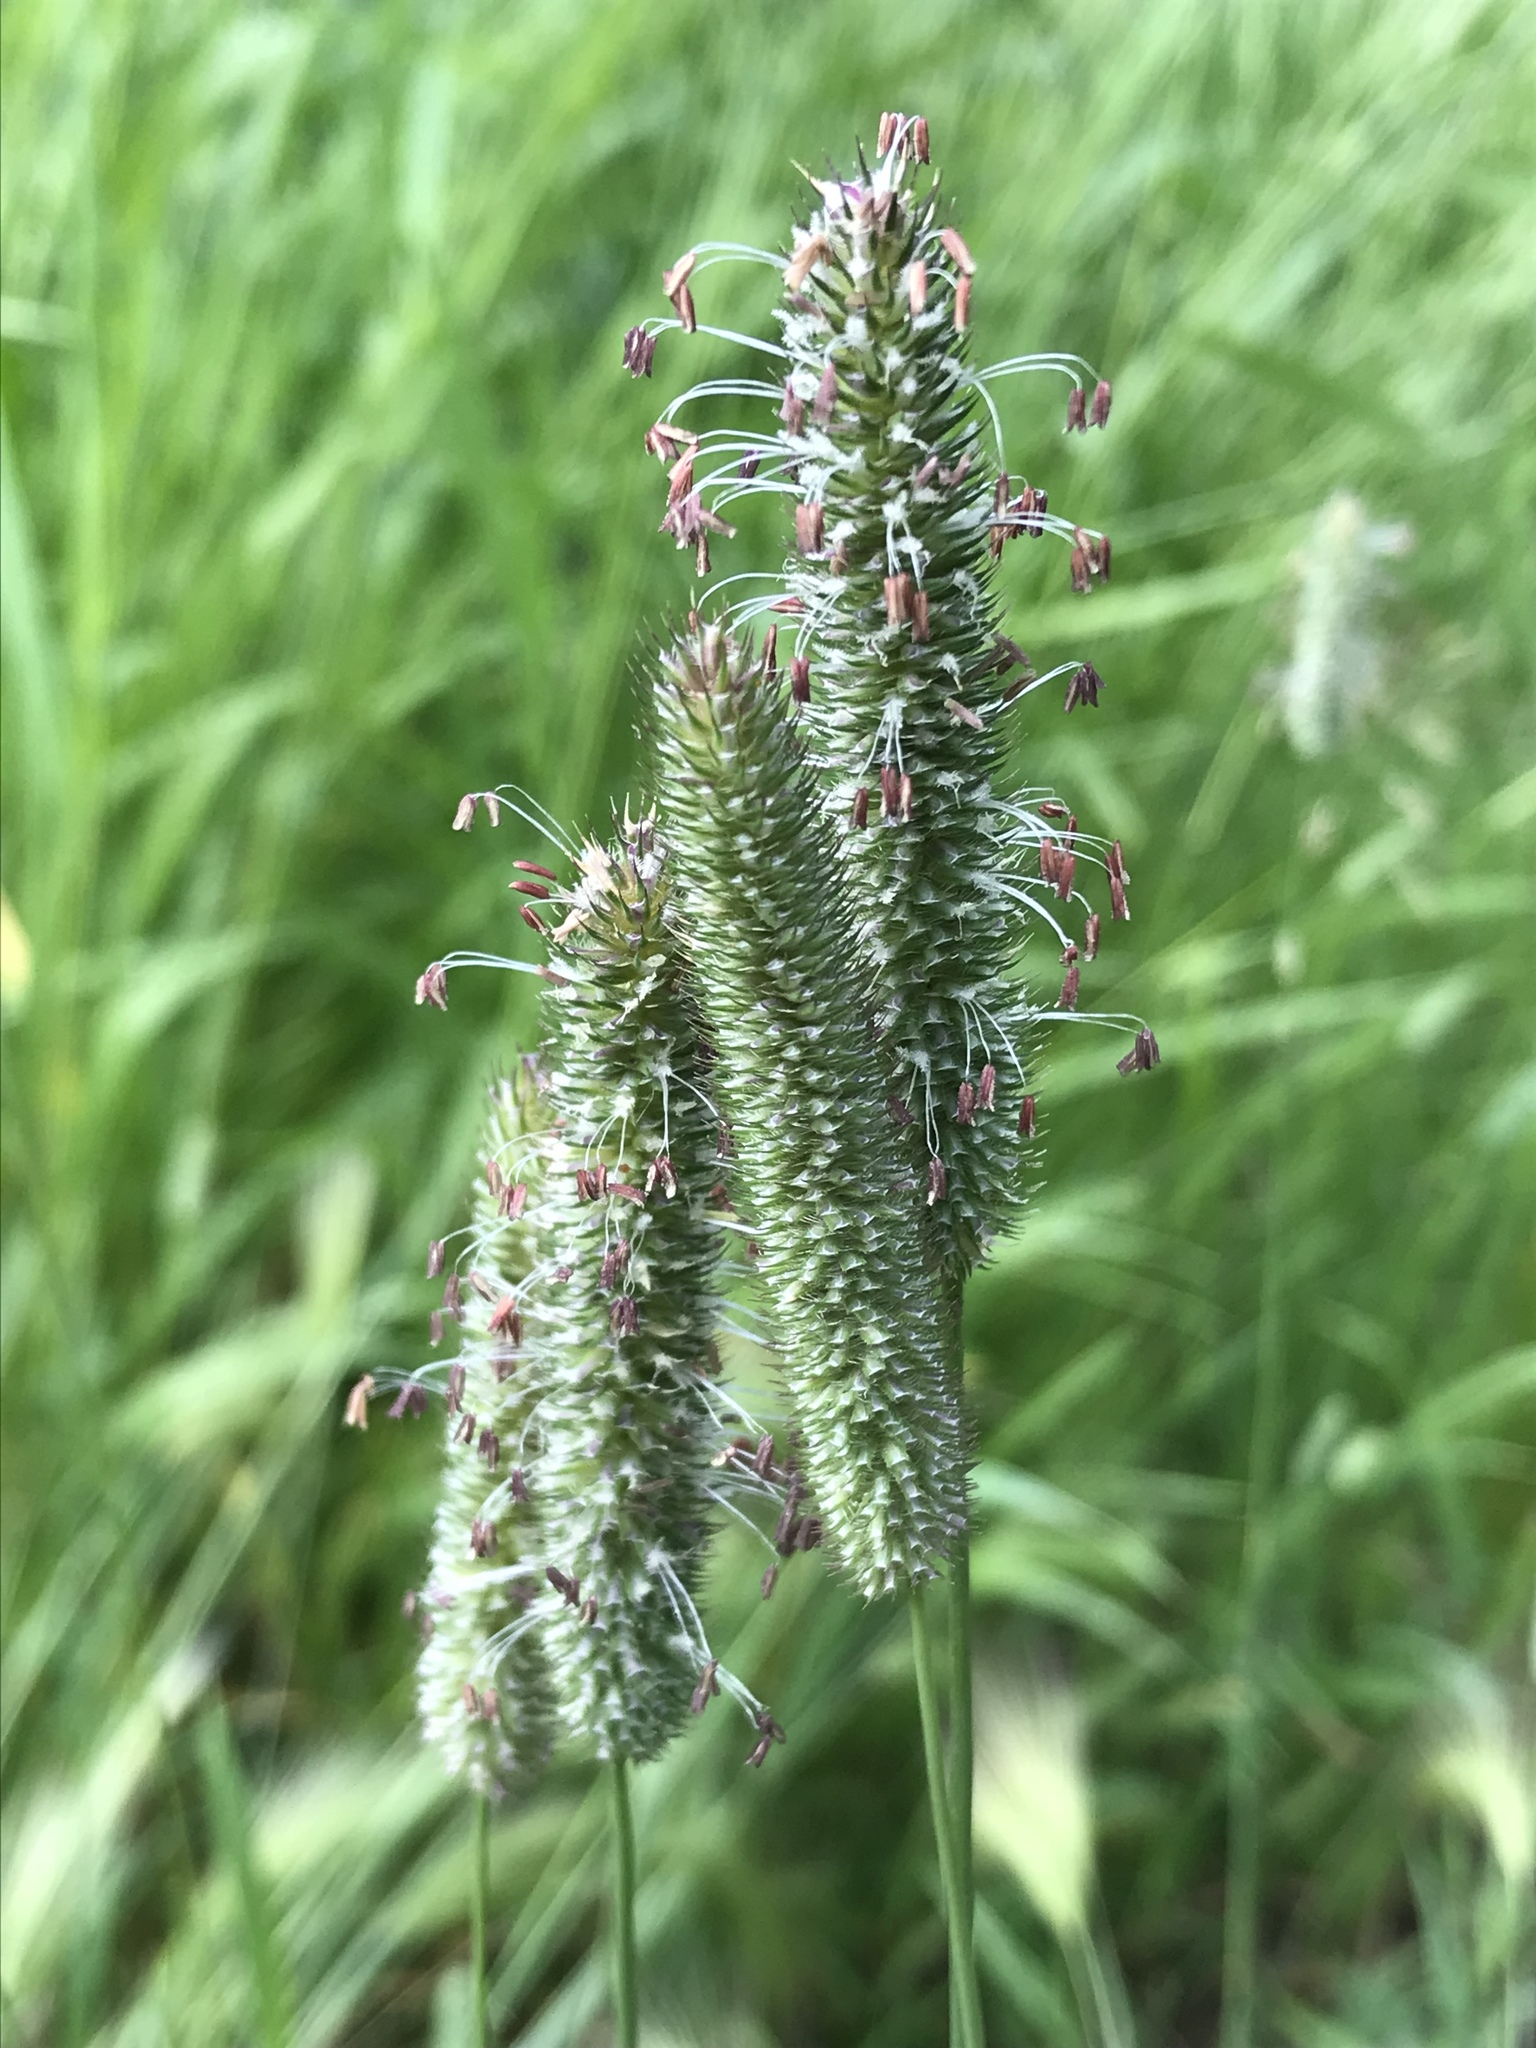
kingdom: Plantae
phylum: Tracheophyta
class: Liliopsida
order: Poales
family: Poaceae
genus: Phleum
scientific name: Phleum pratense
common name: Timothy grass
